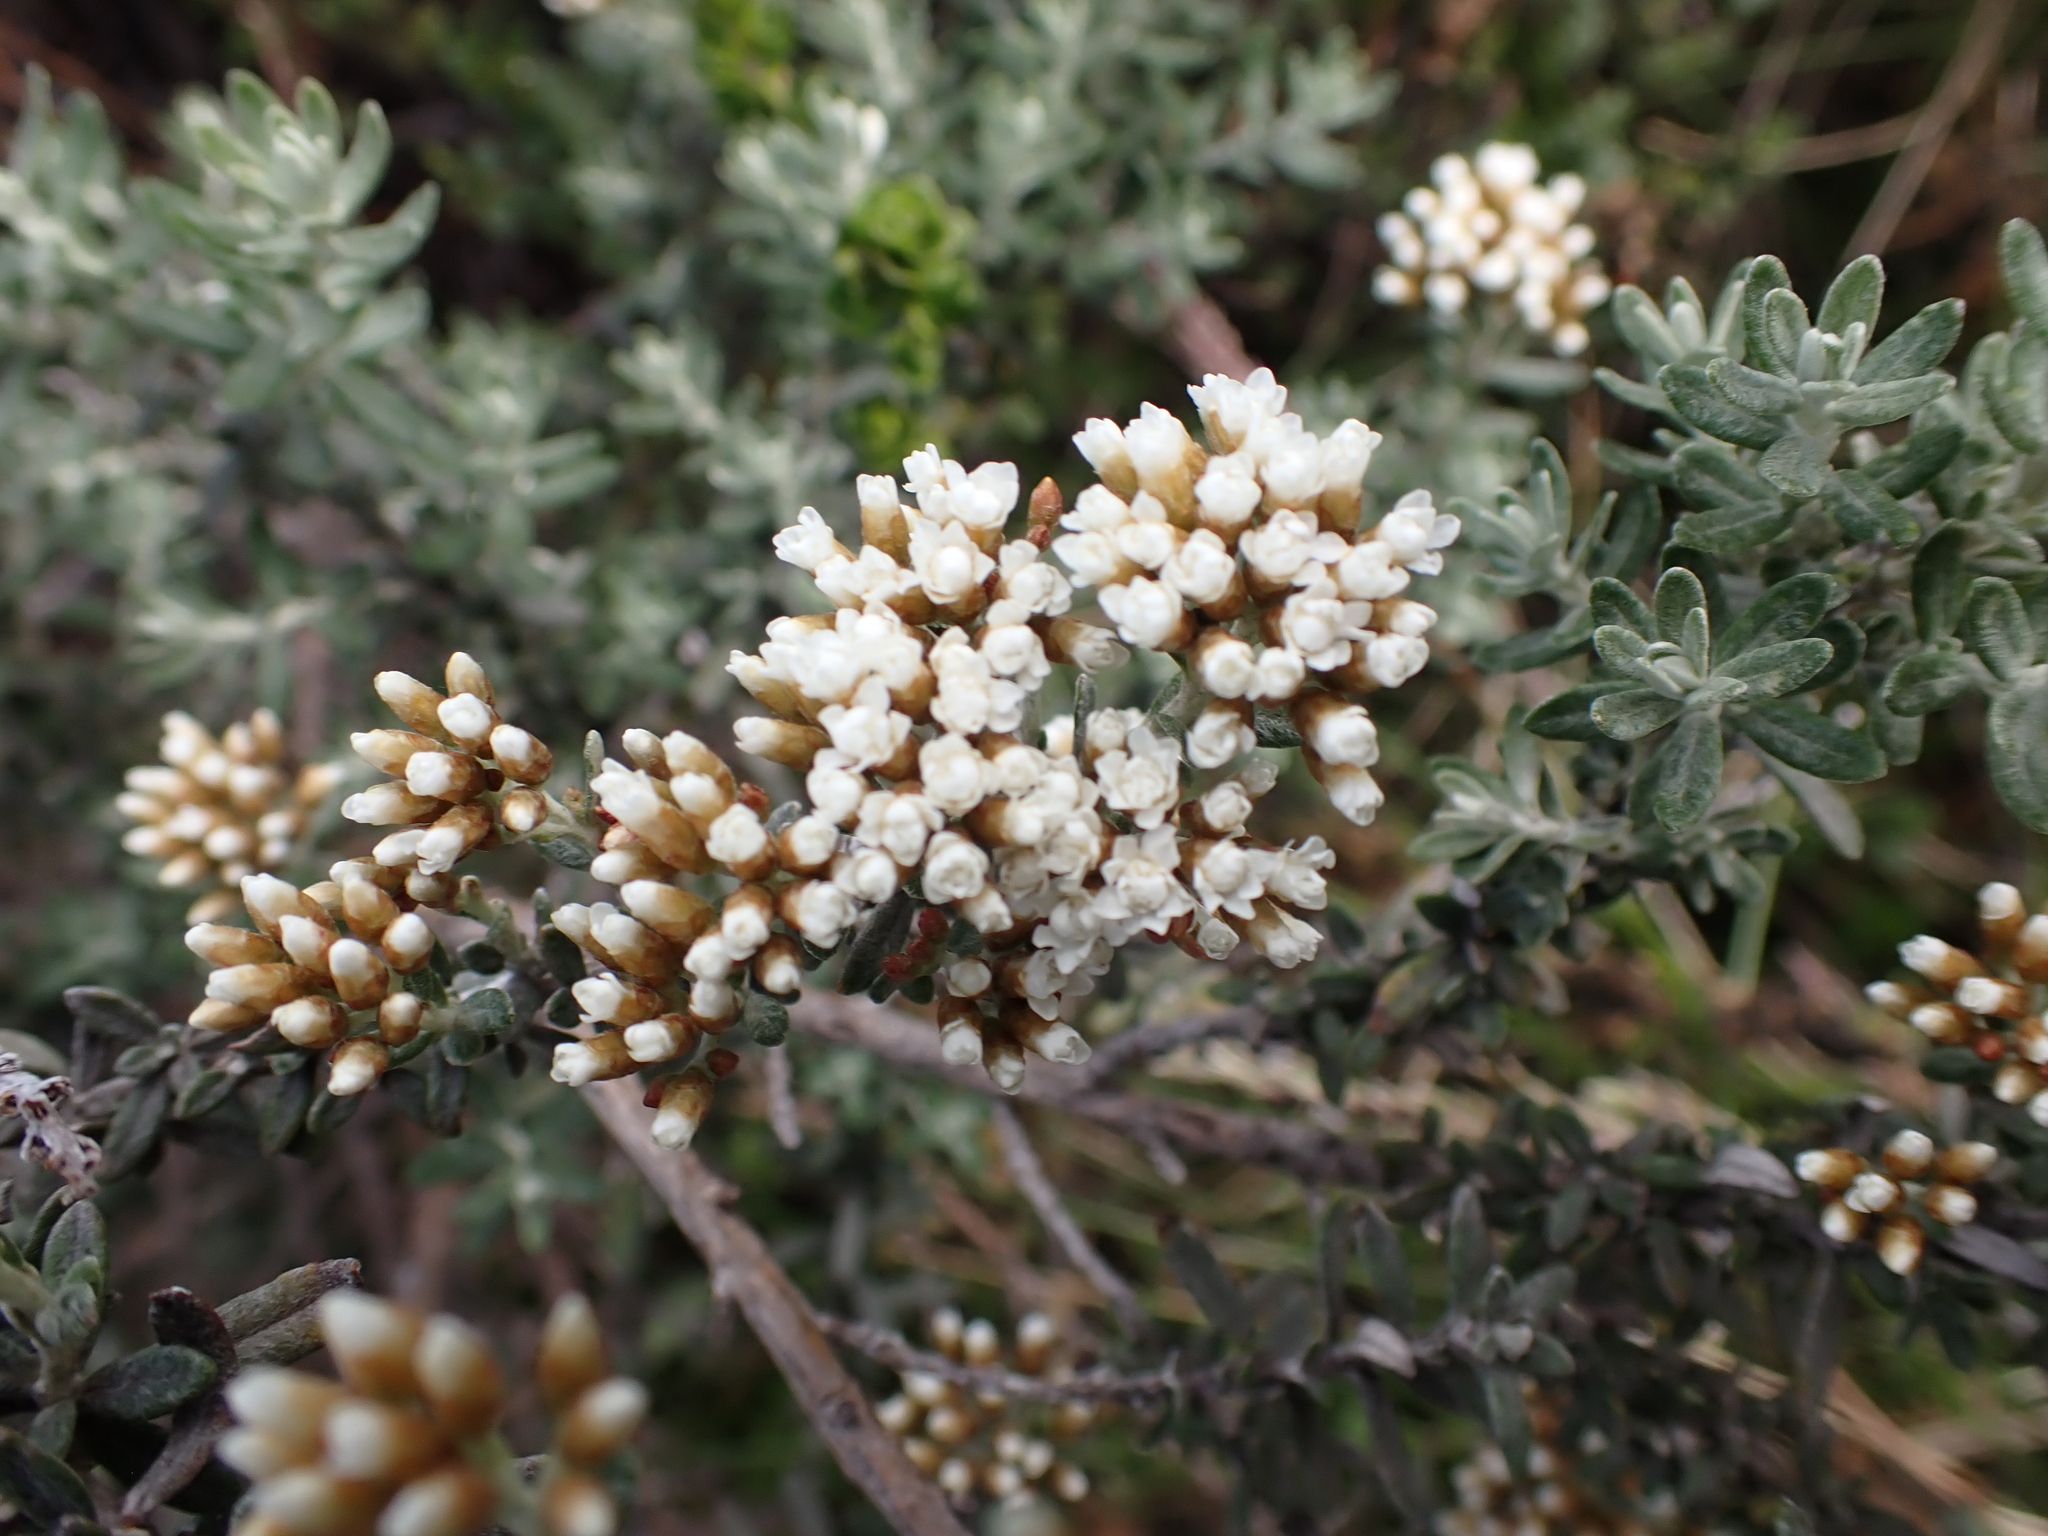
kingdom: Plantae
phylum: Tracheophyta
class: Magnoliopsida
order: Asterales
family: Asteraceae
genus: Ozothamnus
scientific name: Ozothamnus secundiflorus
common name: Cascade everlasting
